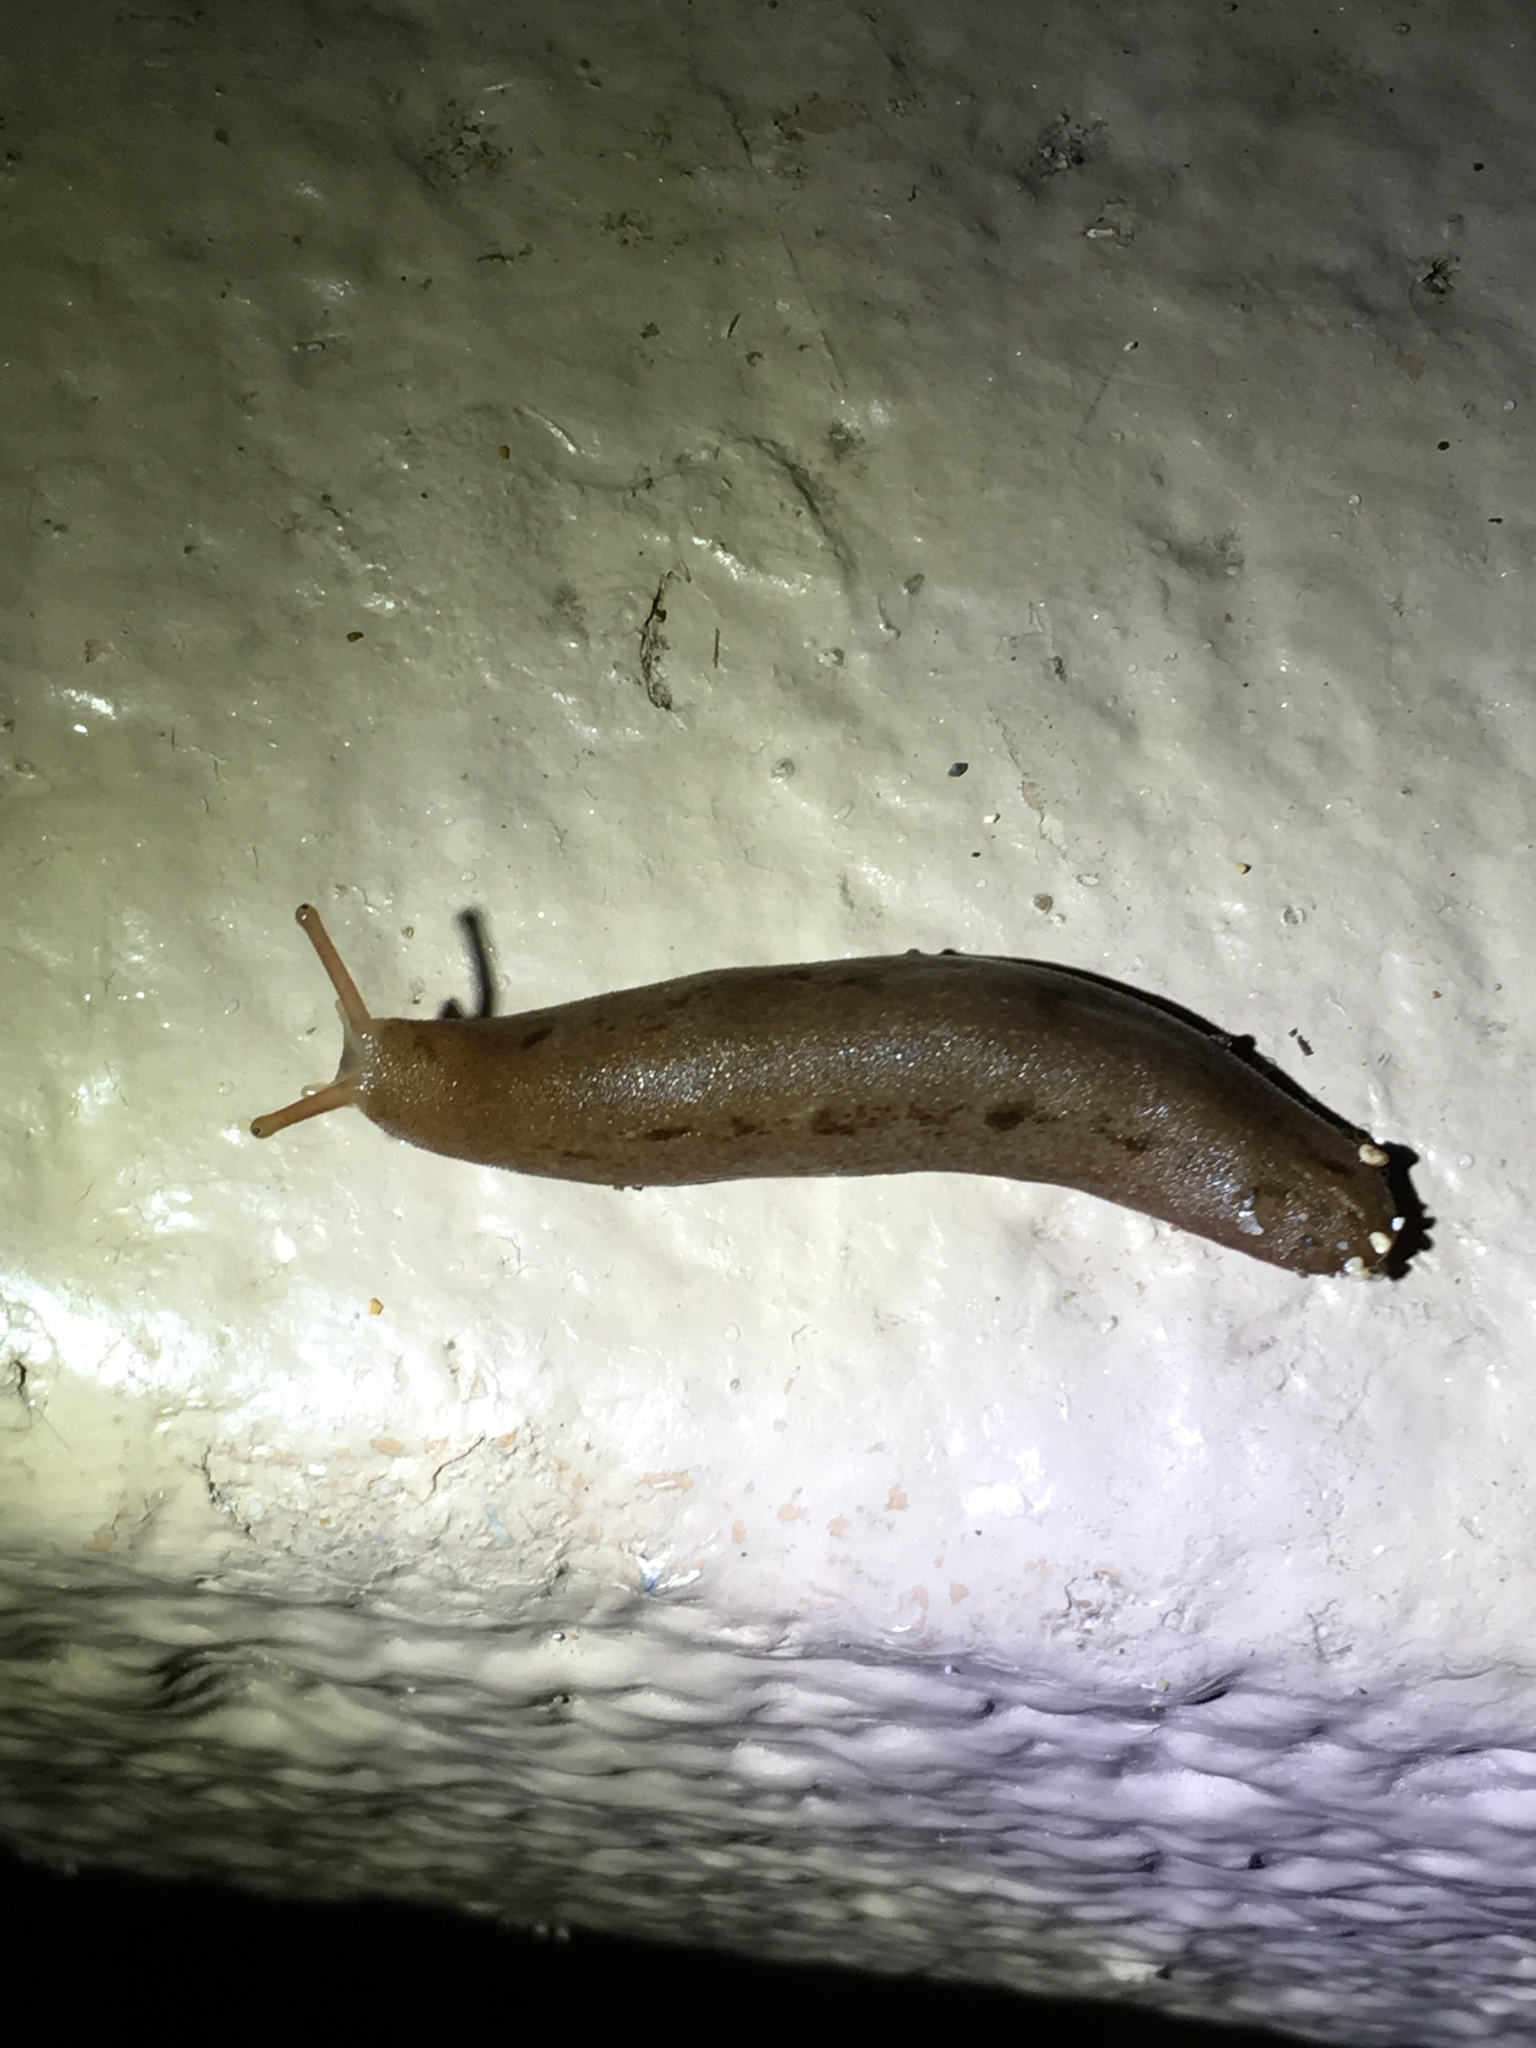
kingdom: Animalia
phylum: Mollusca
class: Gastropoda
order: Systellommatophora
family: Veronicellidae
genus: Veronicella
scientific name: Veronicella cubensis
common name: Two striped slug
